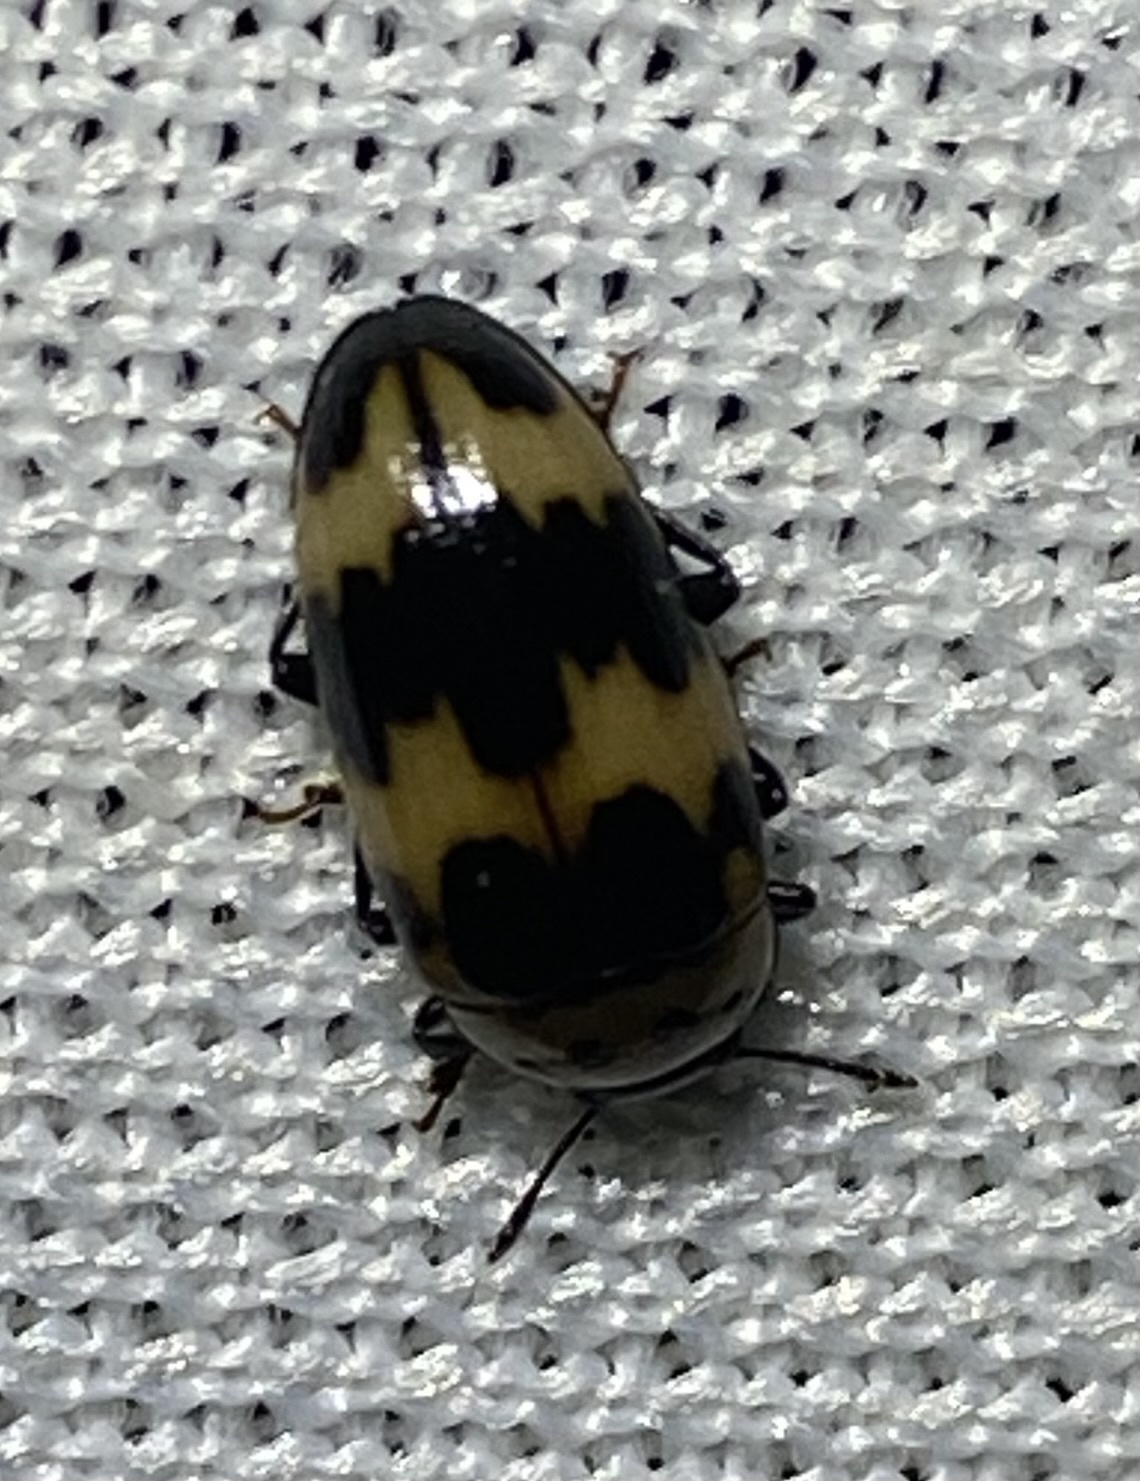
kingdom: Animalia
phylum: Arthropoda
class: Insecta
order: Coleoptera
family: Erotylidae
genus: Ischyrus
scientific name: Ischyrus quadripunctatus
